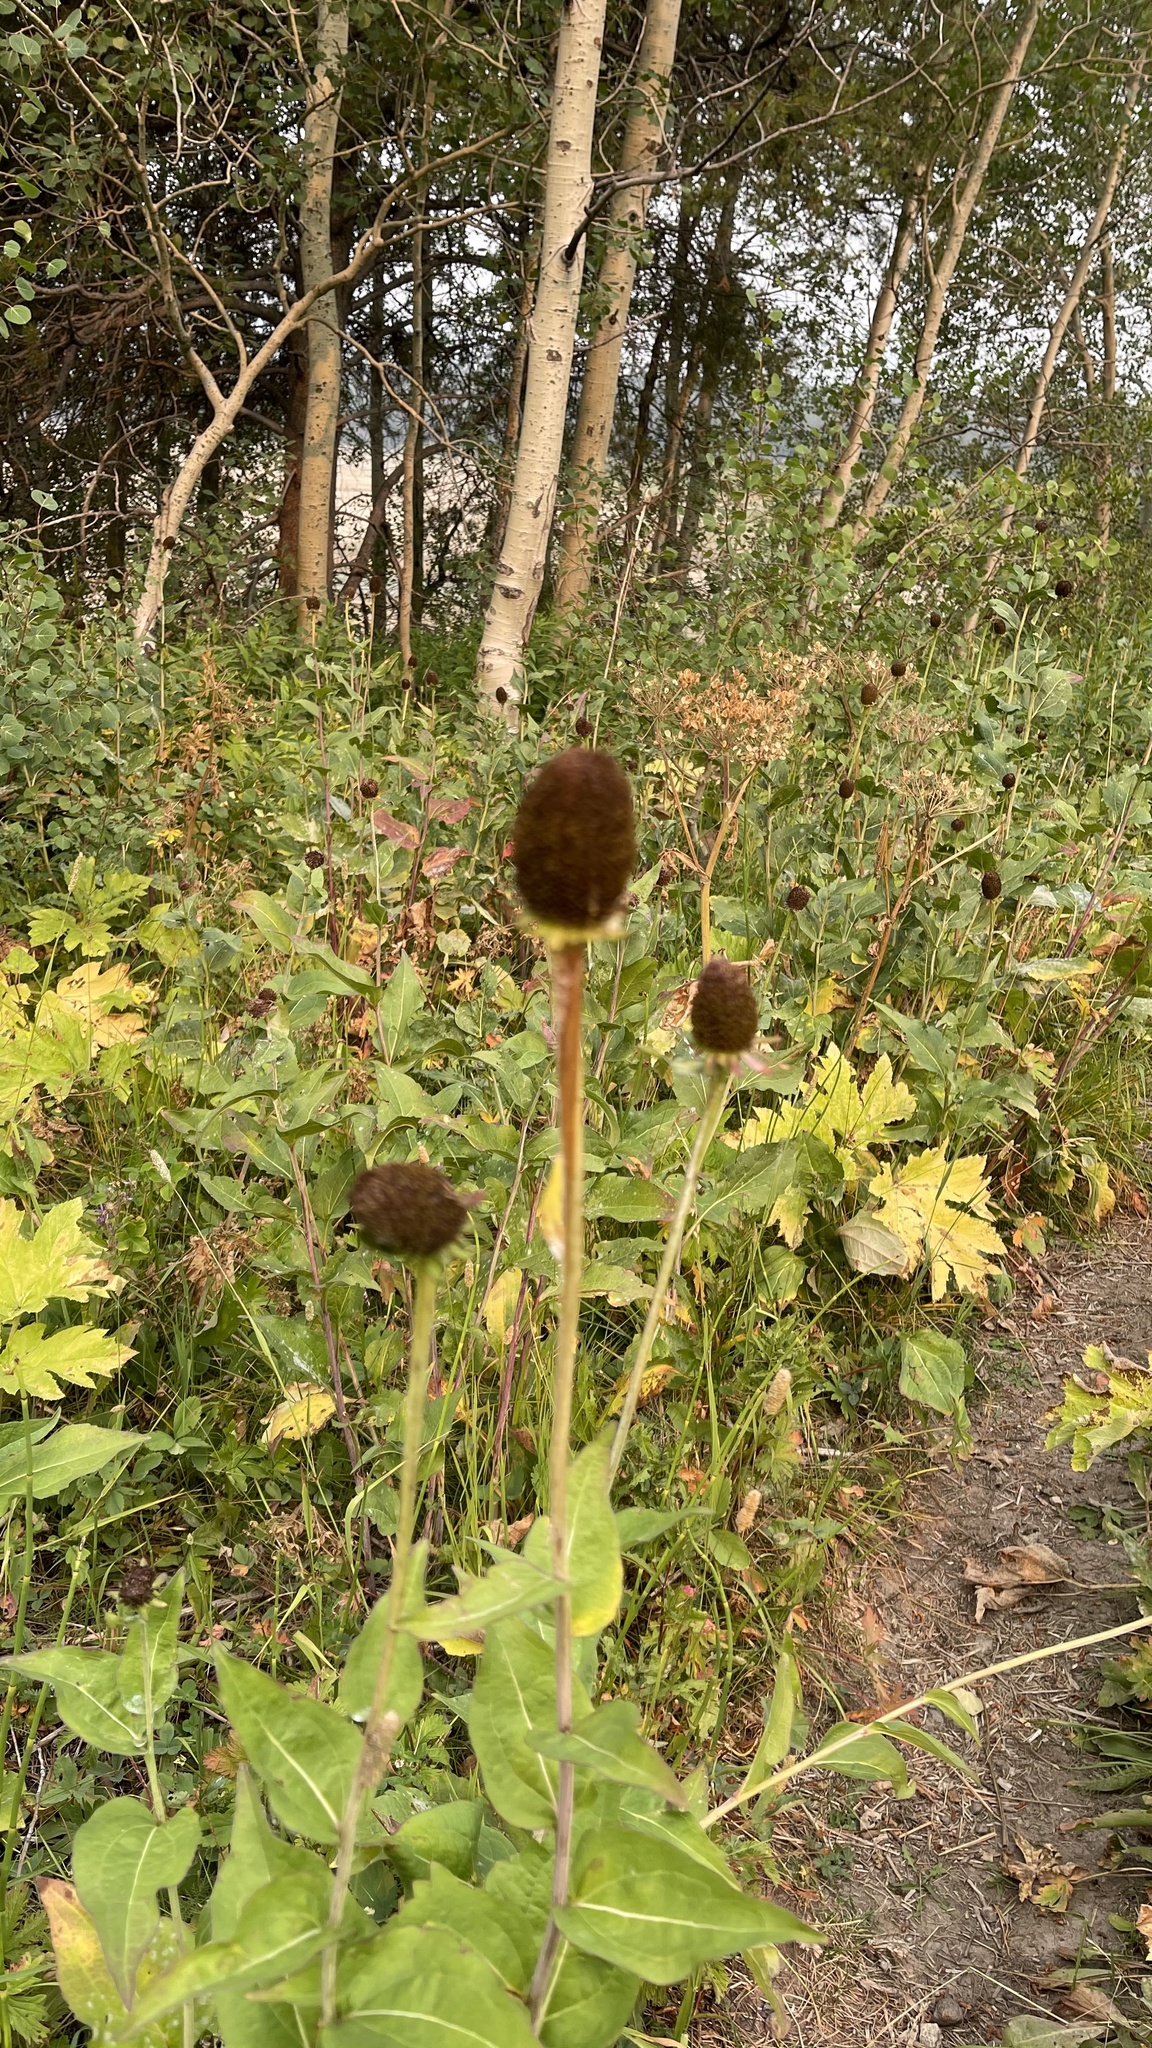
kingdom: Plantae
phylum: Tracheophyta
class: Magnoliopsida
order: Asterales
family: Asteraceae
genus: Rudbeckia
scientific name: Rudbeckia occidentalis
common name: Western coneflower
